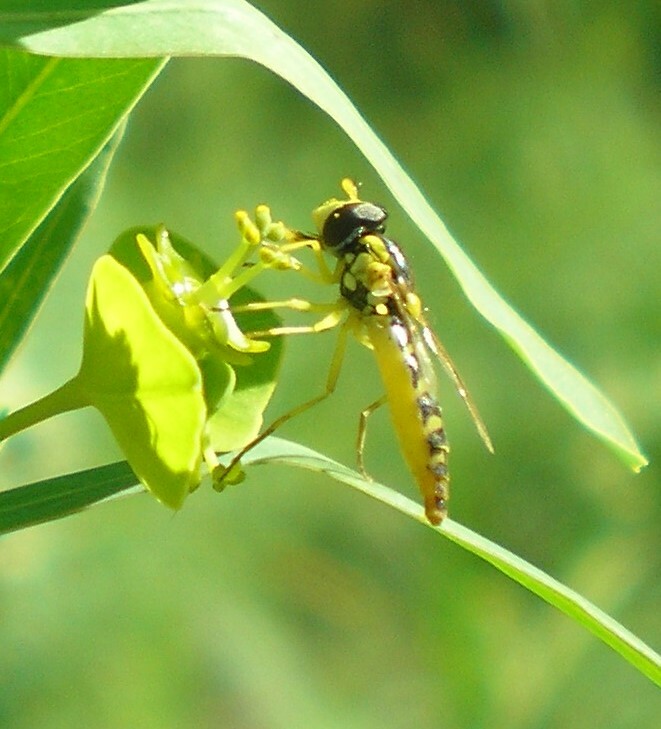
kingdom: Animalia
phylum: Arthropoda
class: Insecta
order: Diptera
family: Syrphidae
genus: Sphaerophoria
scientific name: Sphaerophoria
